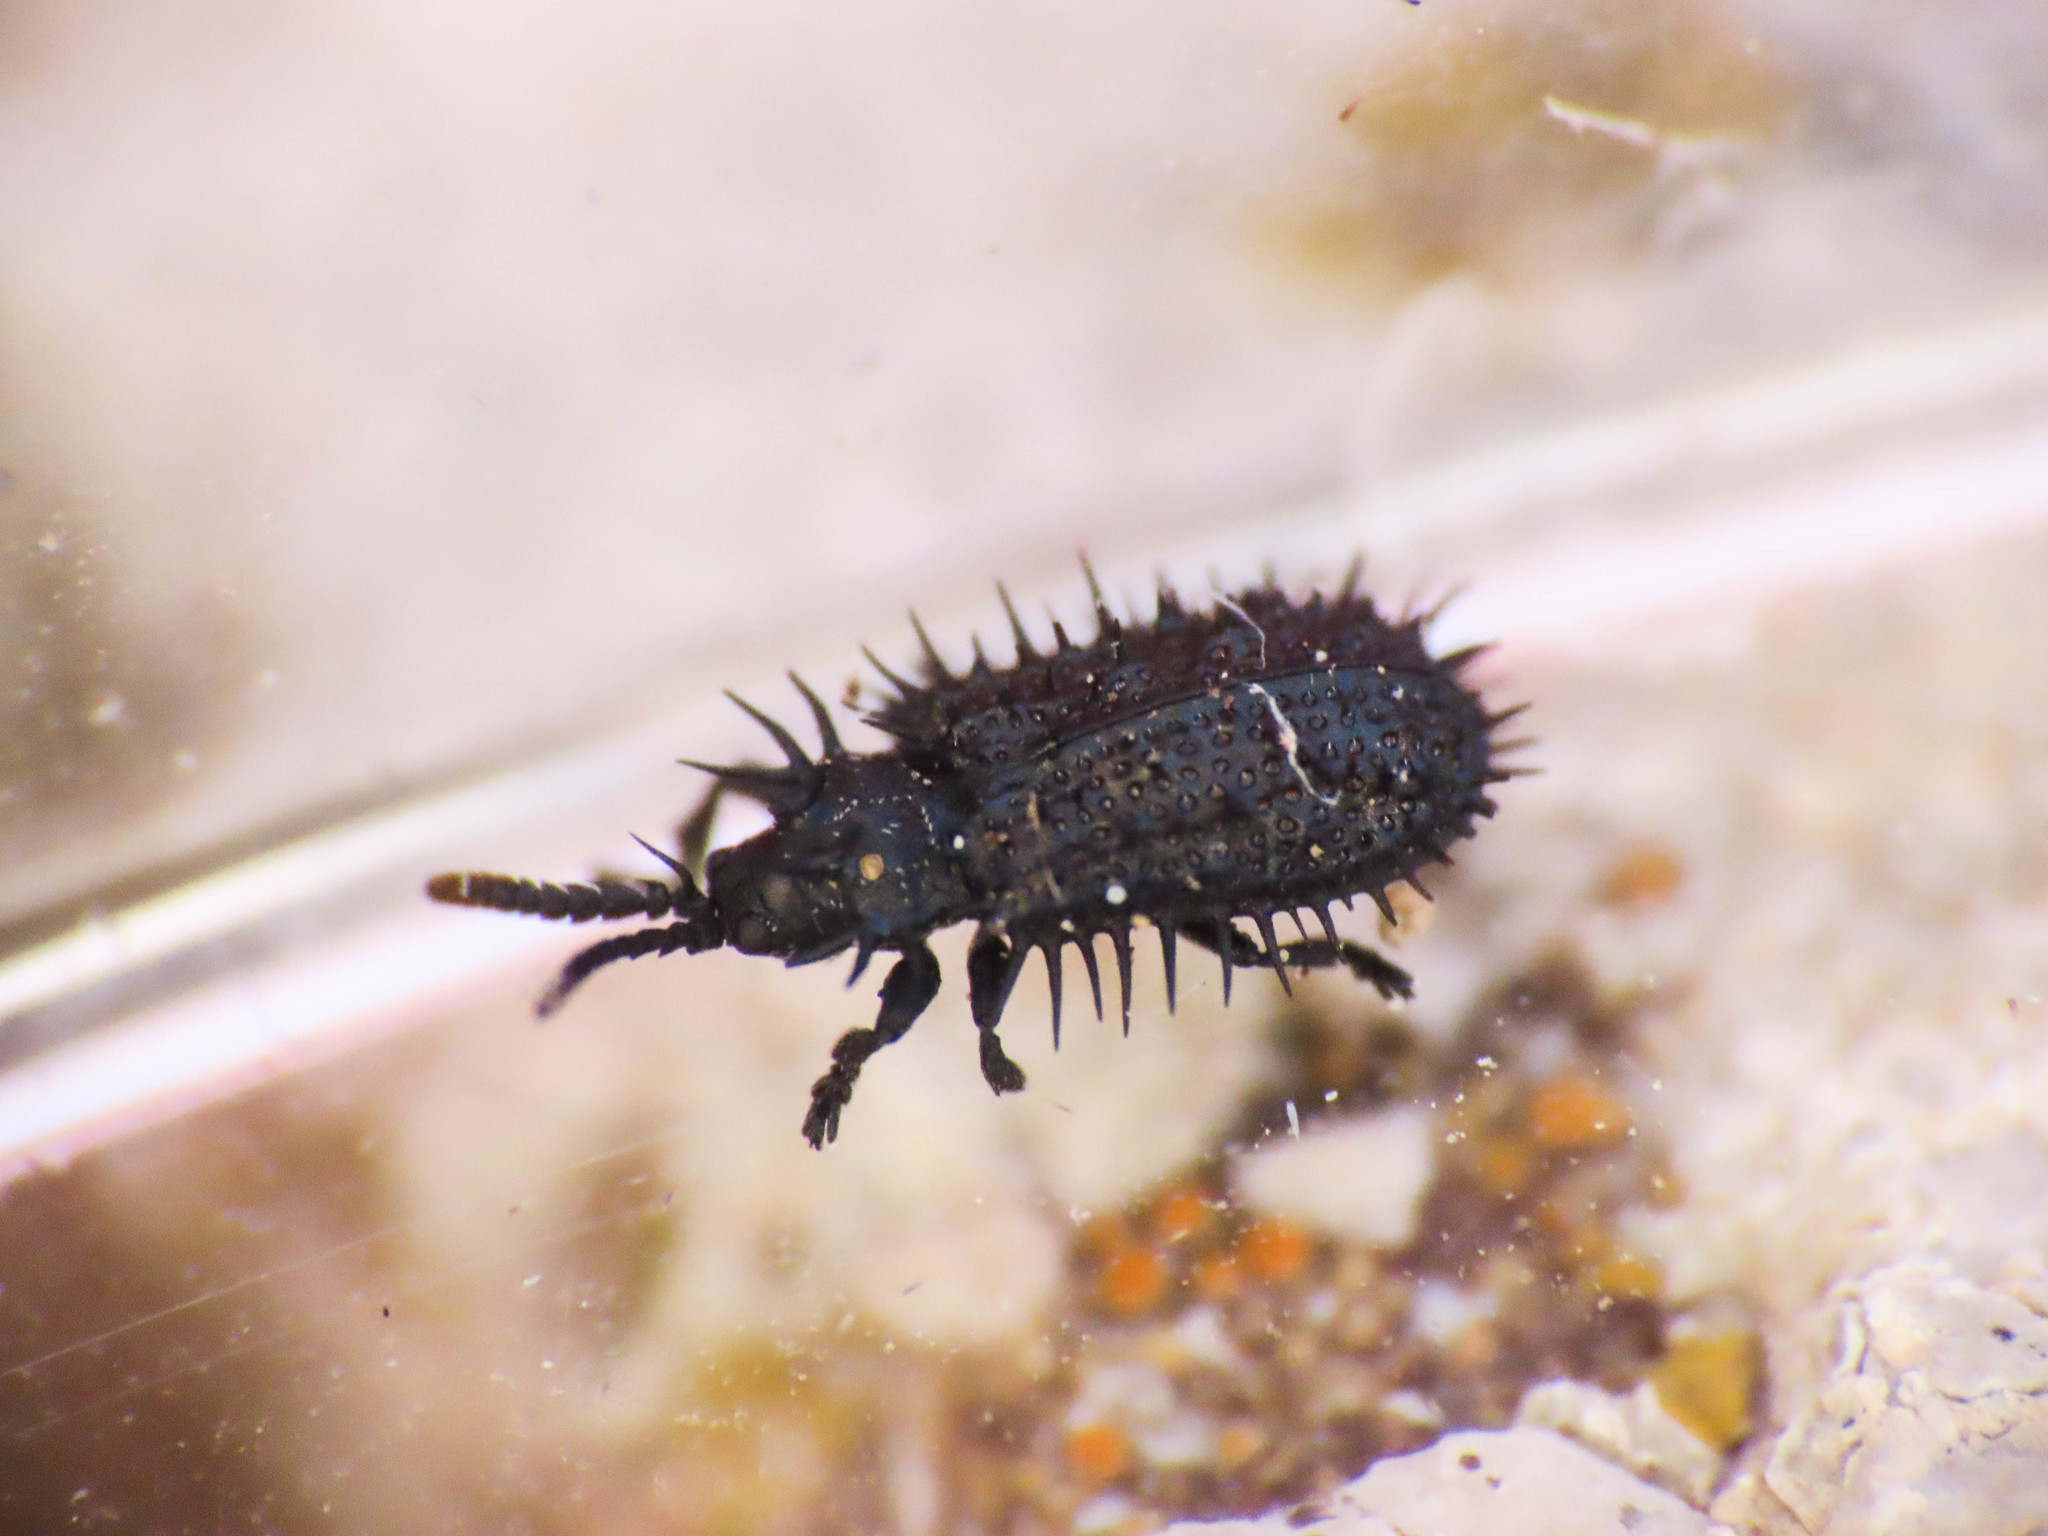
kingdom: Animalia
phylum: Arthropoda
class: Insecta
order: Coleoptera
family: Chrysomelidae
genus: Hispa
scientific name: Hispa atra
